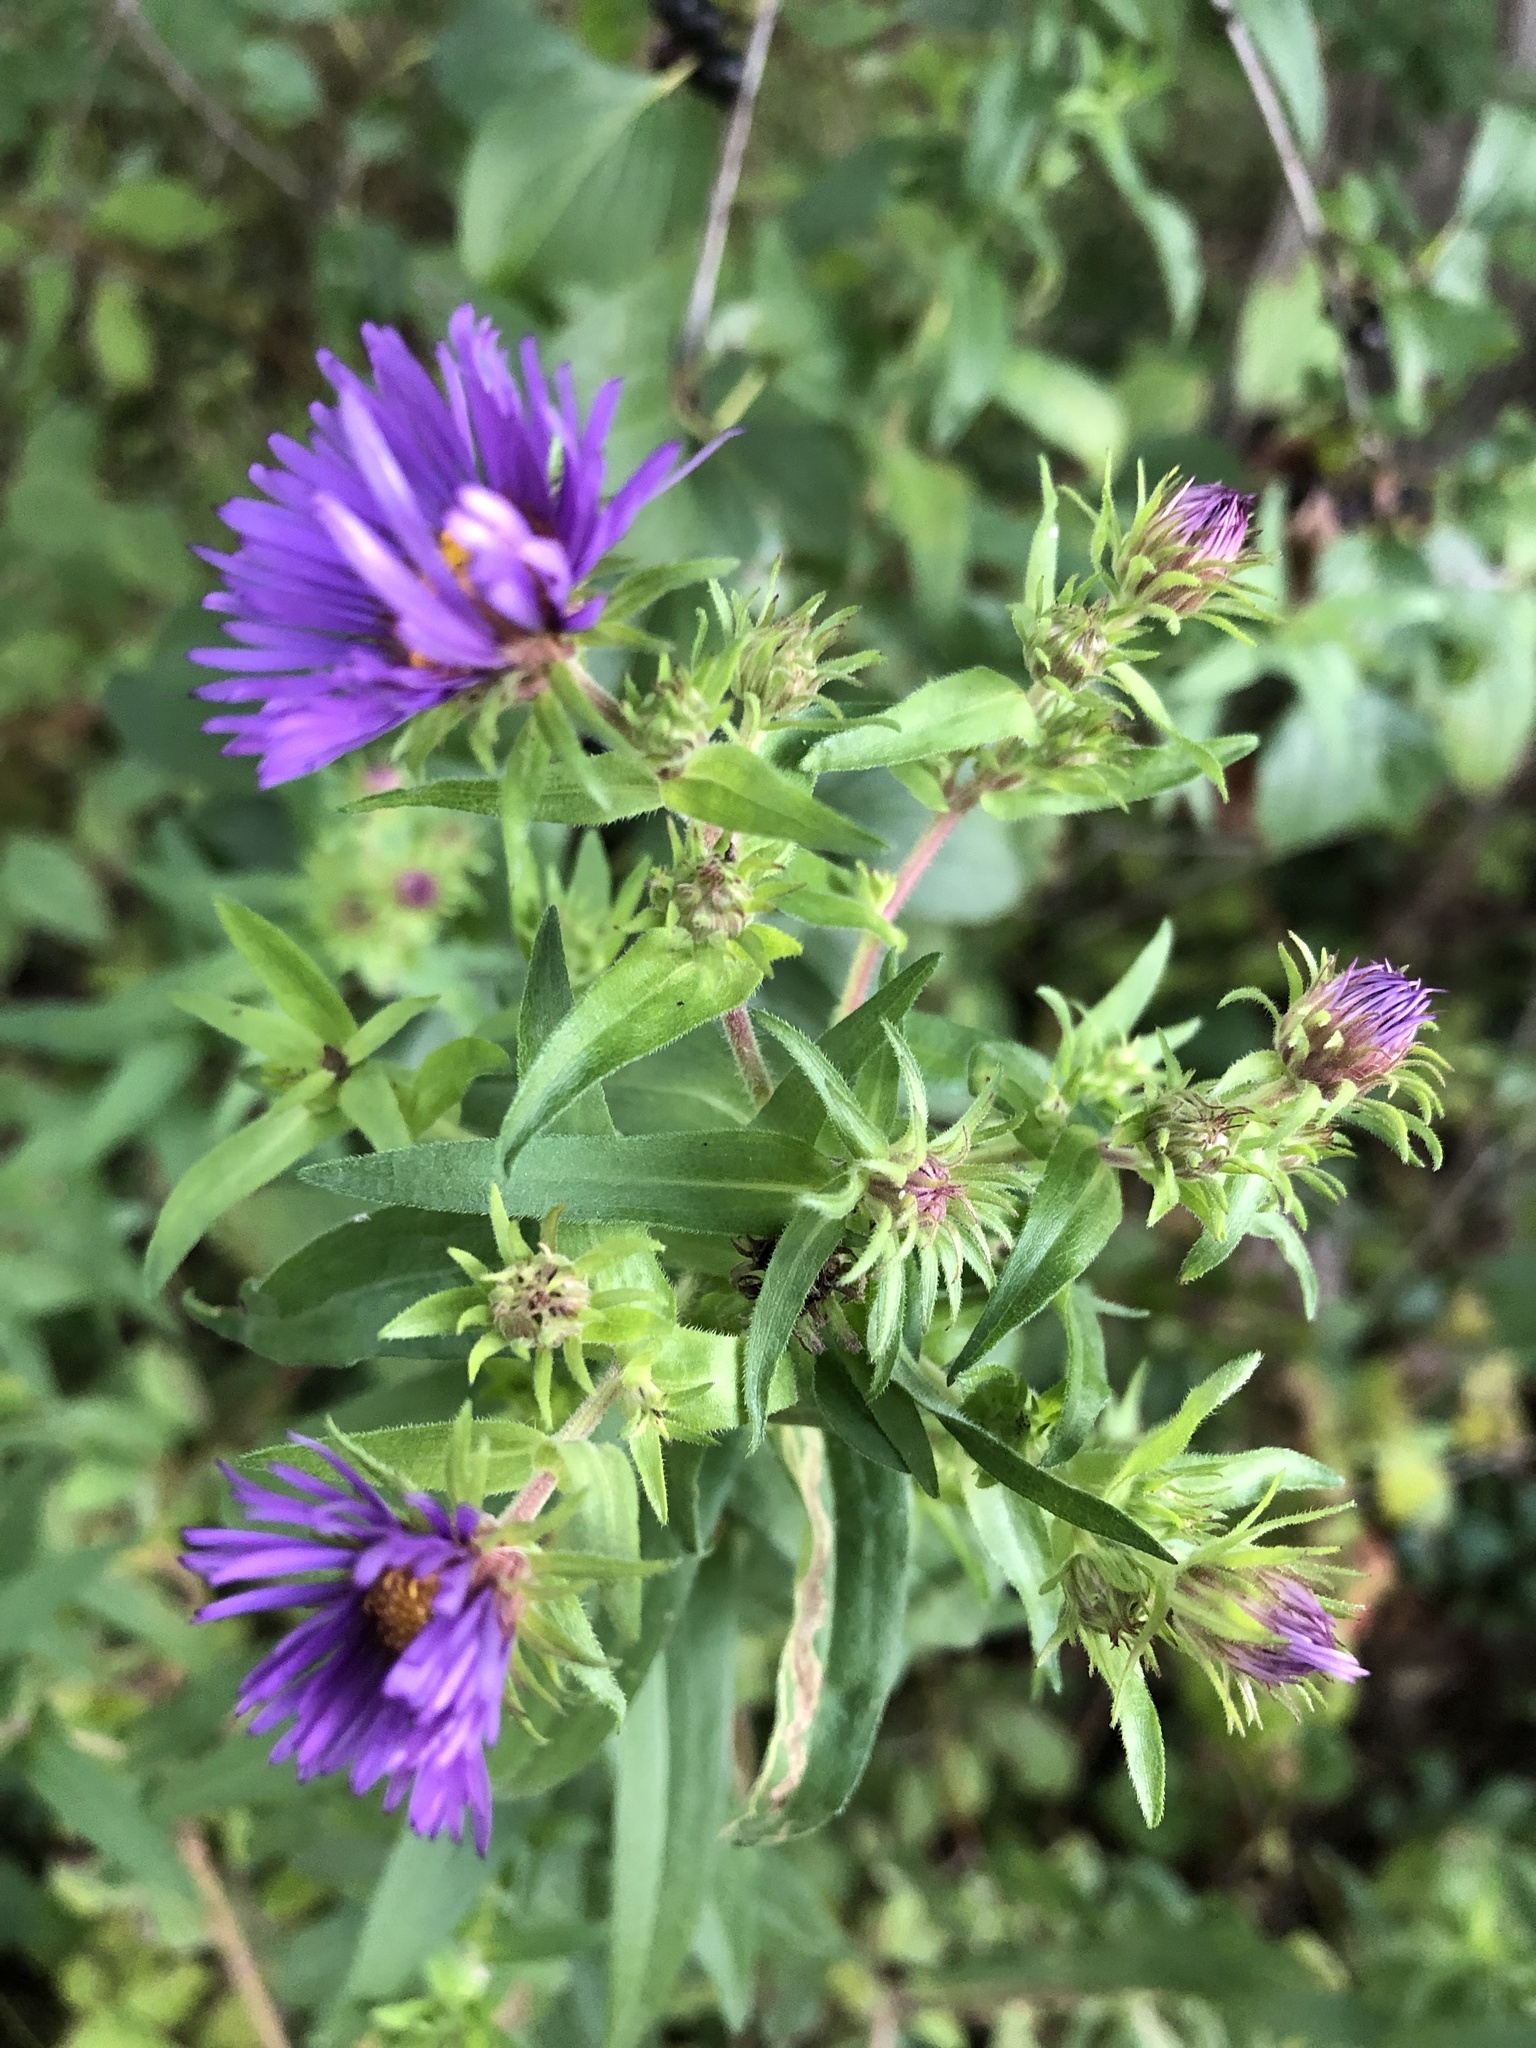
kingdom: Plantae
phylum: Tracheophyta
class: Magnoliopsida
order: Asterales
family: Asteraceae
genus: Symphyotrichum
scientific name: Symphyotrichum novae-angliae
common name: Michaelmas daisy
